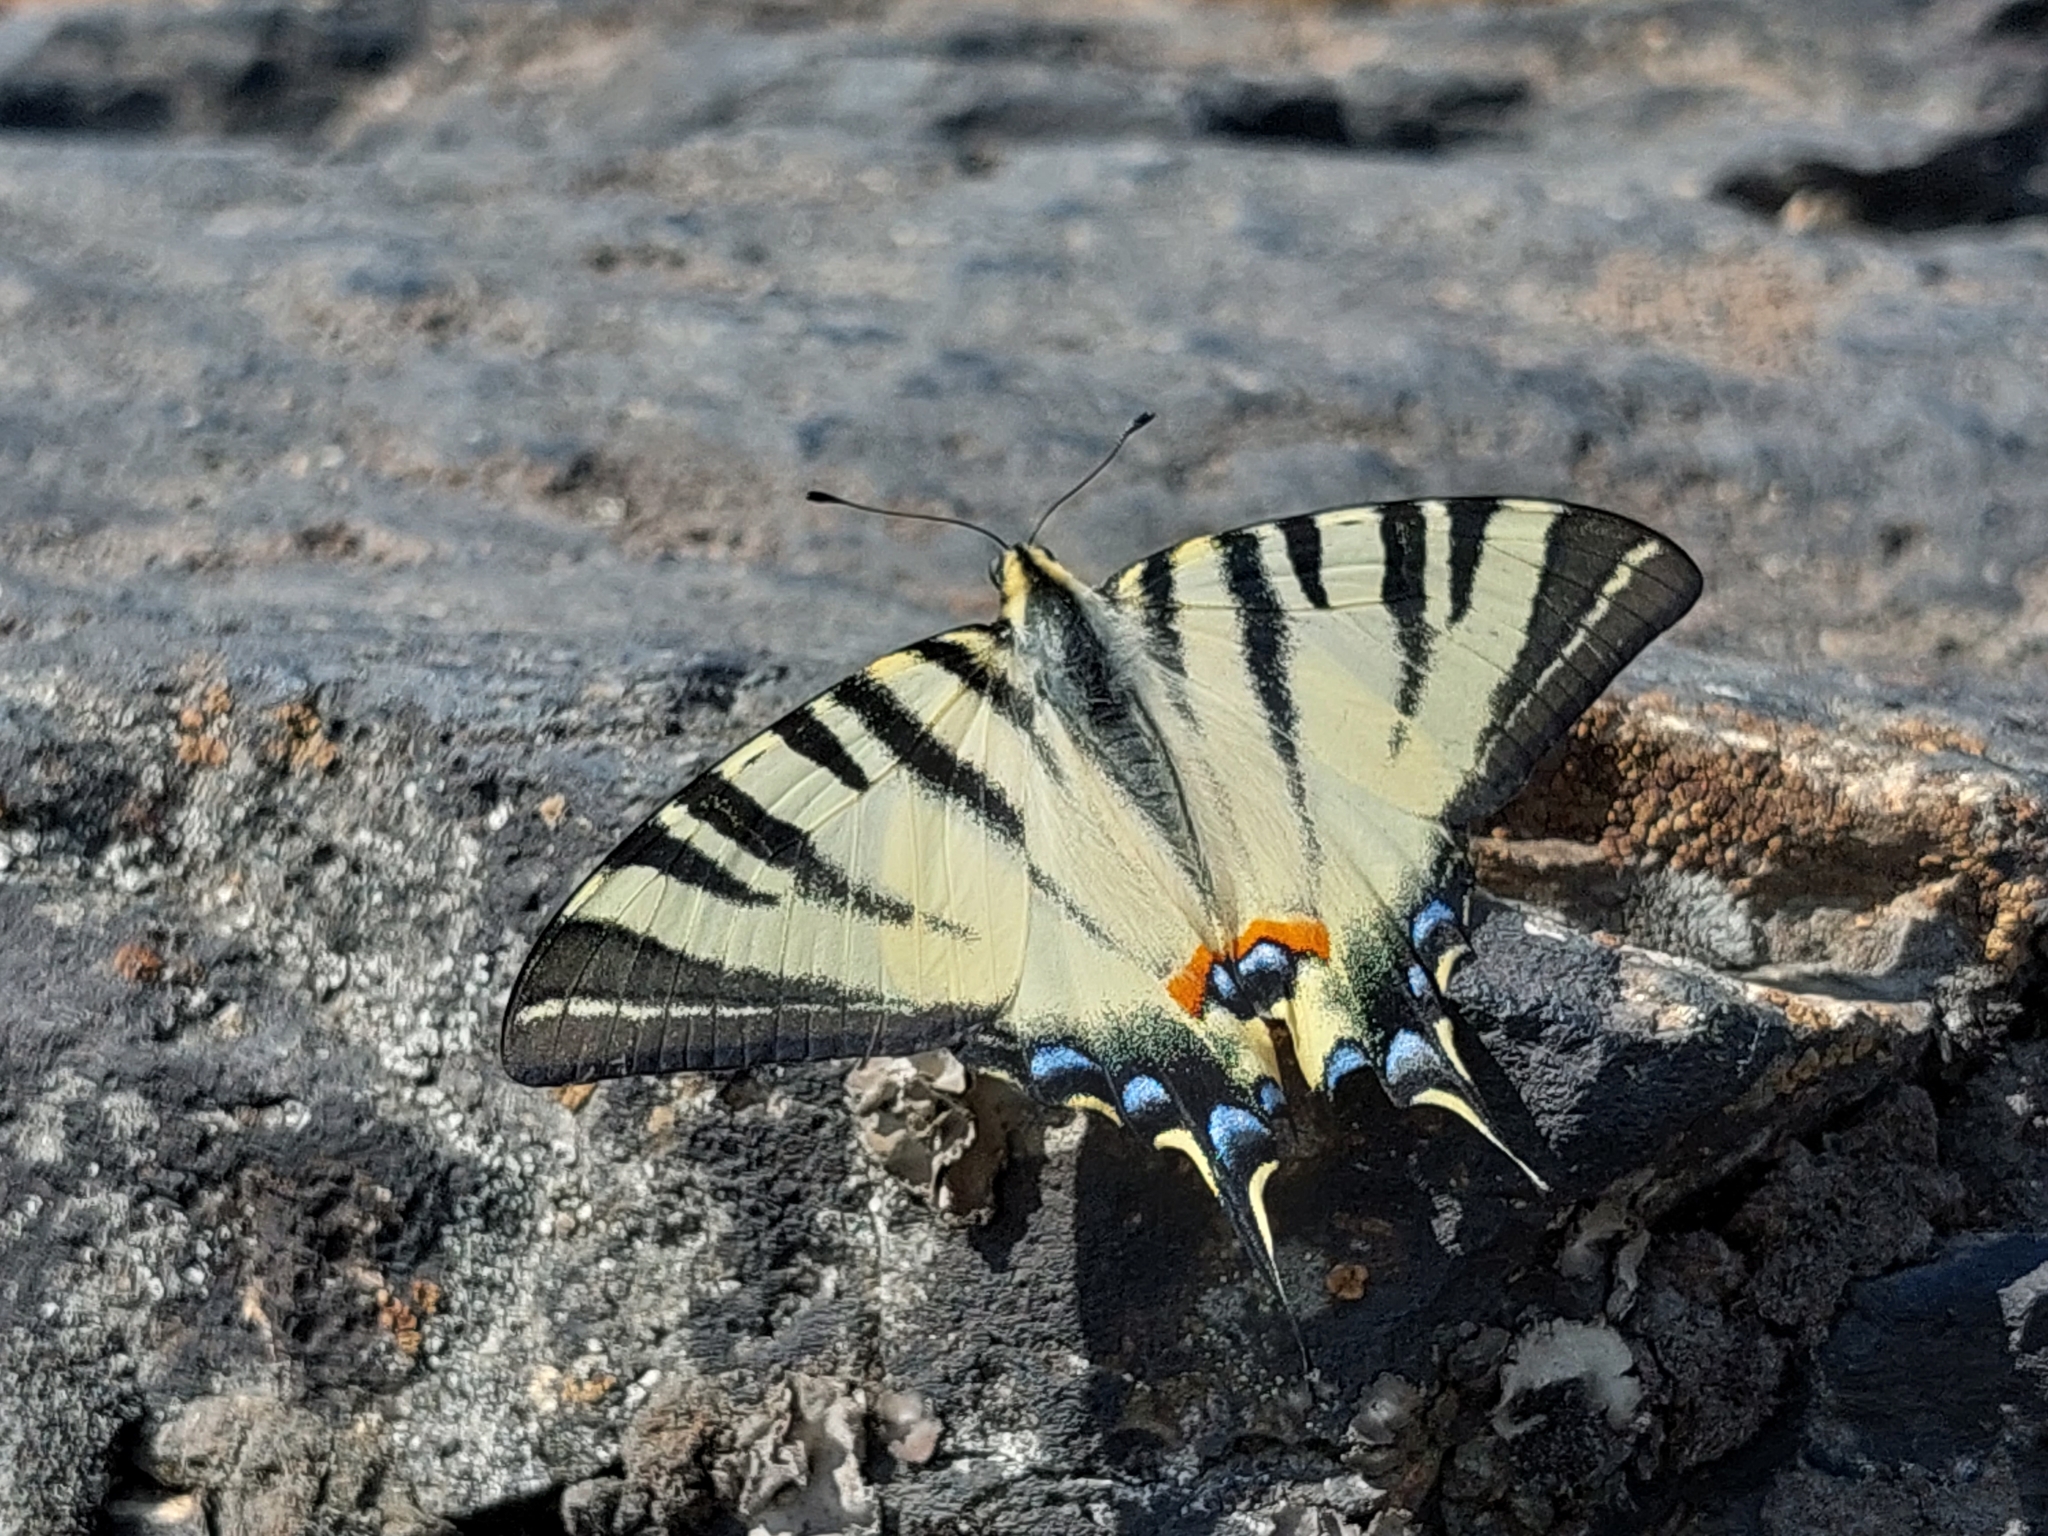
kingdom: Animalia
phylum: Arthropoda
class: Insecta
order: Lepidoptera
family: Papilionidae
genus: Iphiclides
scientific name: Iphiclides podalirius
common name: Scarce swallowtail
